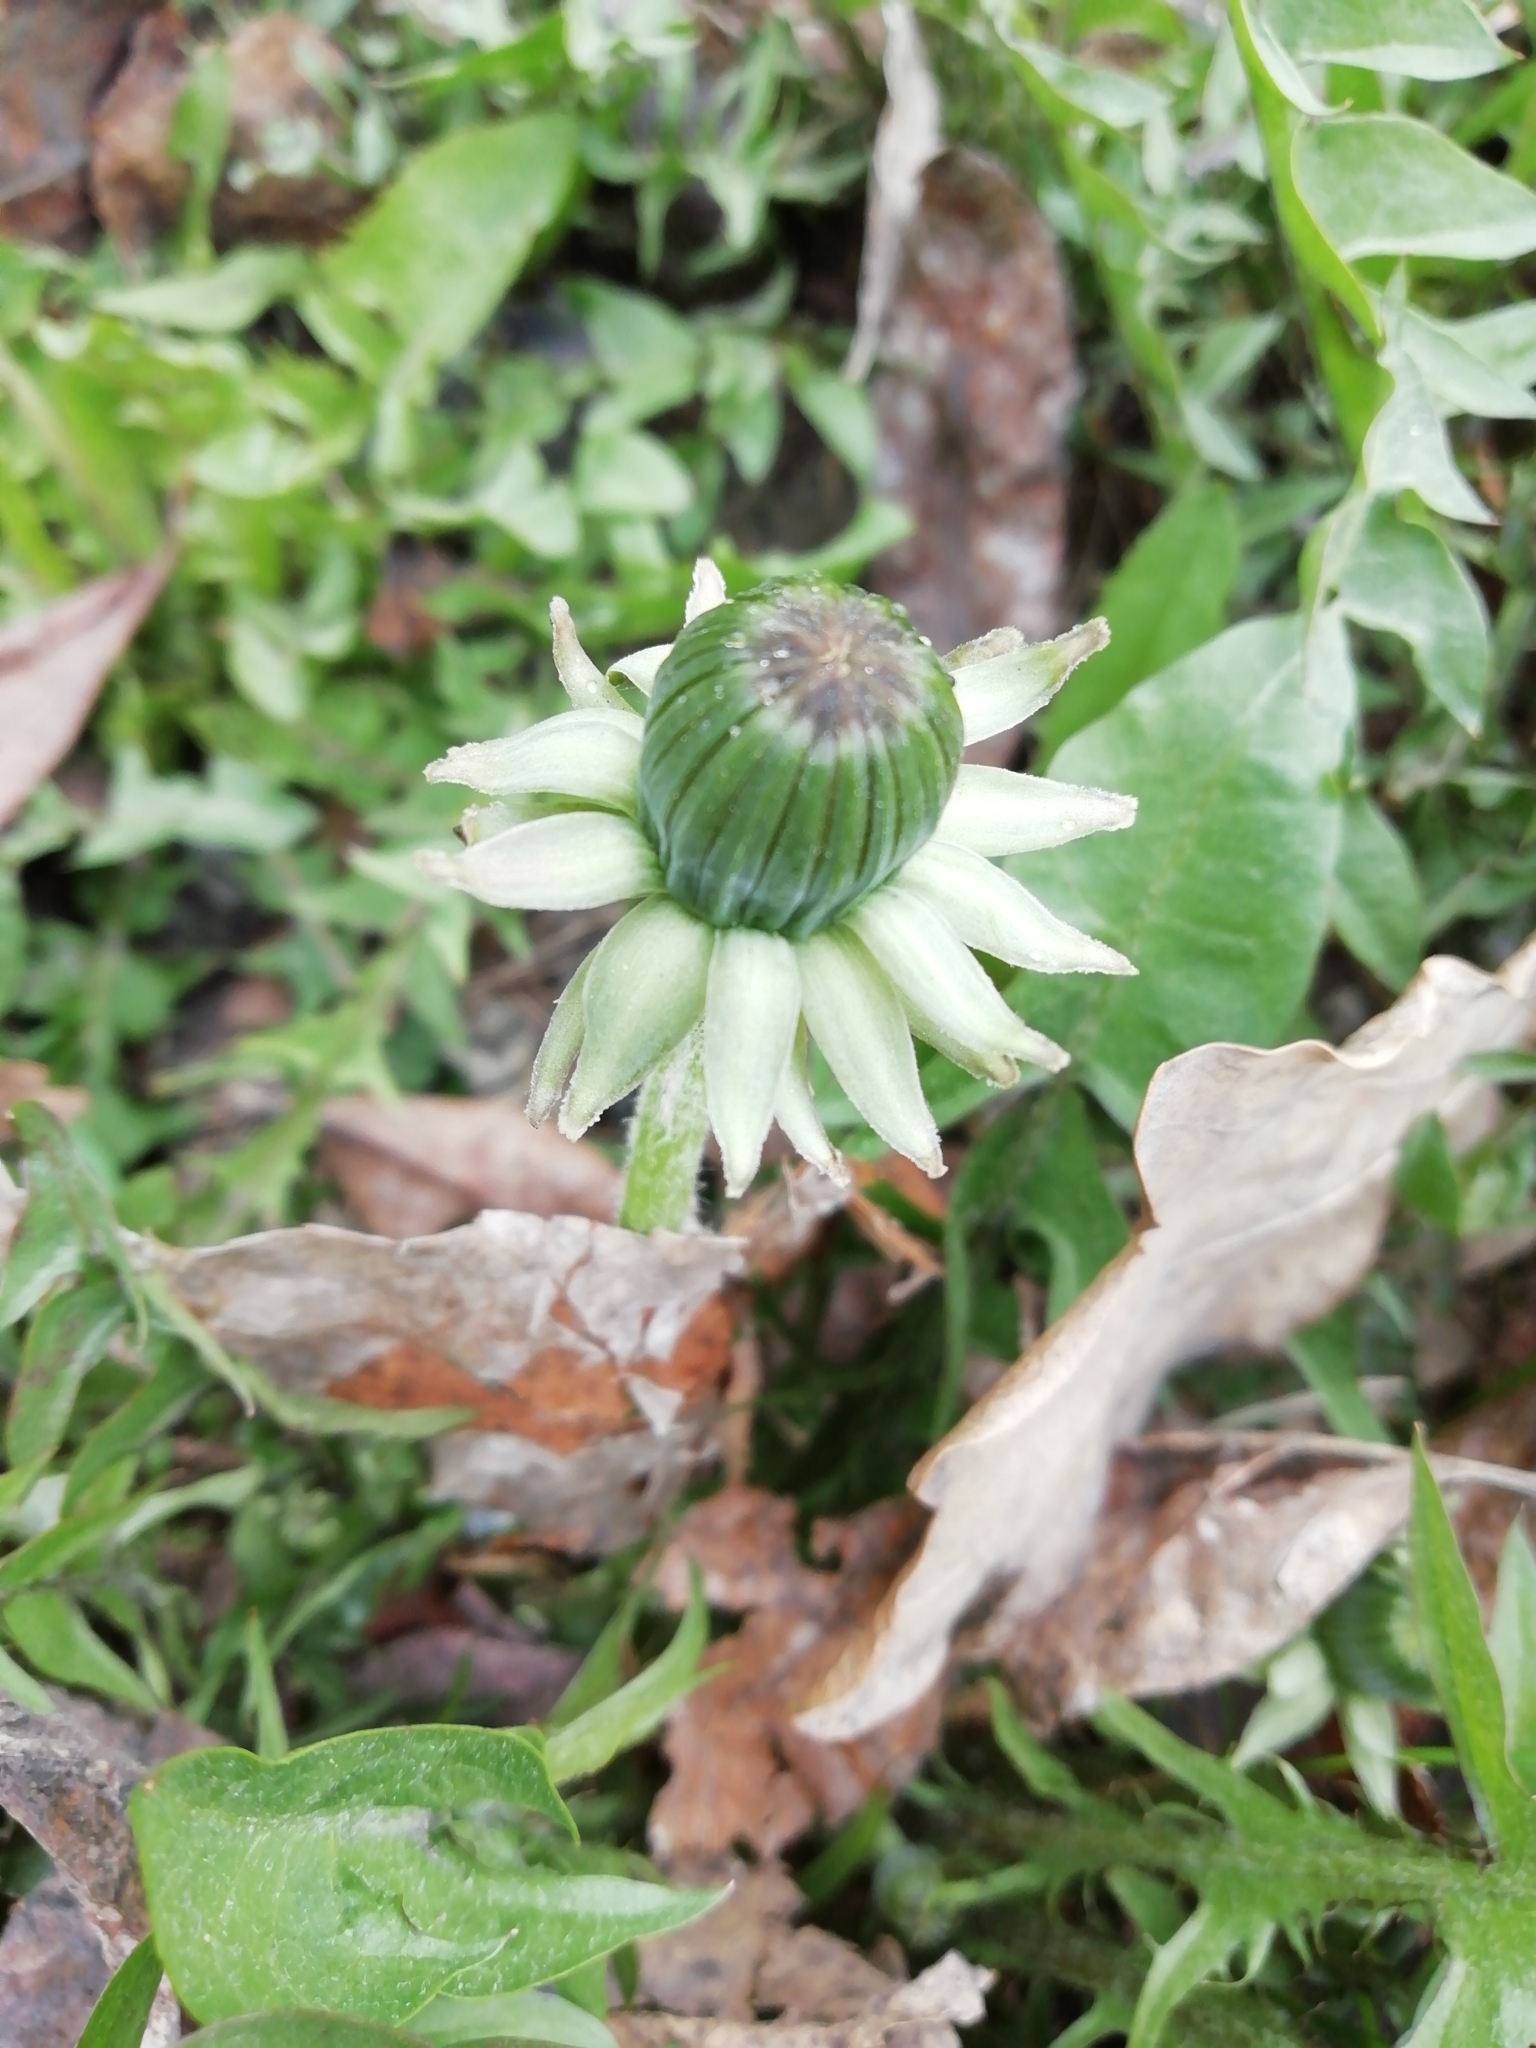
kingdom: Plantae
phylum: Tracheophyta
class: Magnoliopsida
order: Asterales
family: Asteraceae
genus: Taraxacum
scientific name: Taraxacum officinale
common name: Common dandelion
